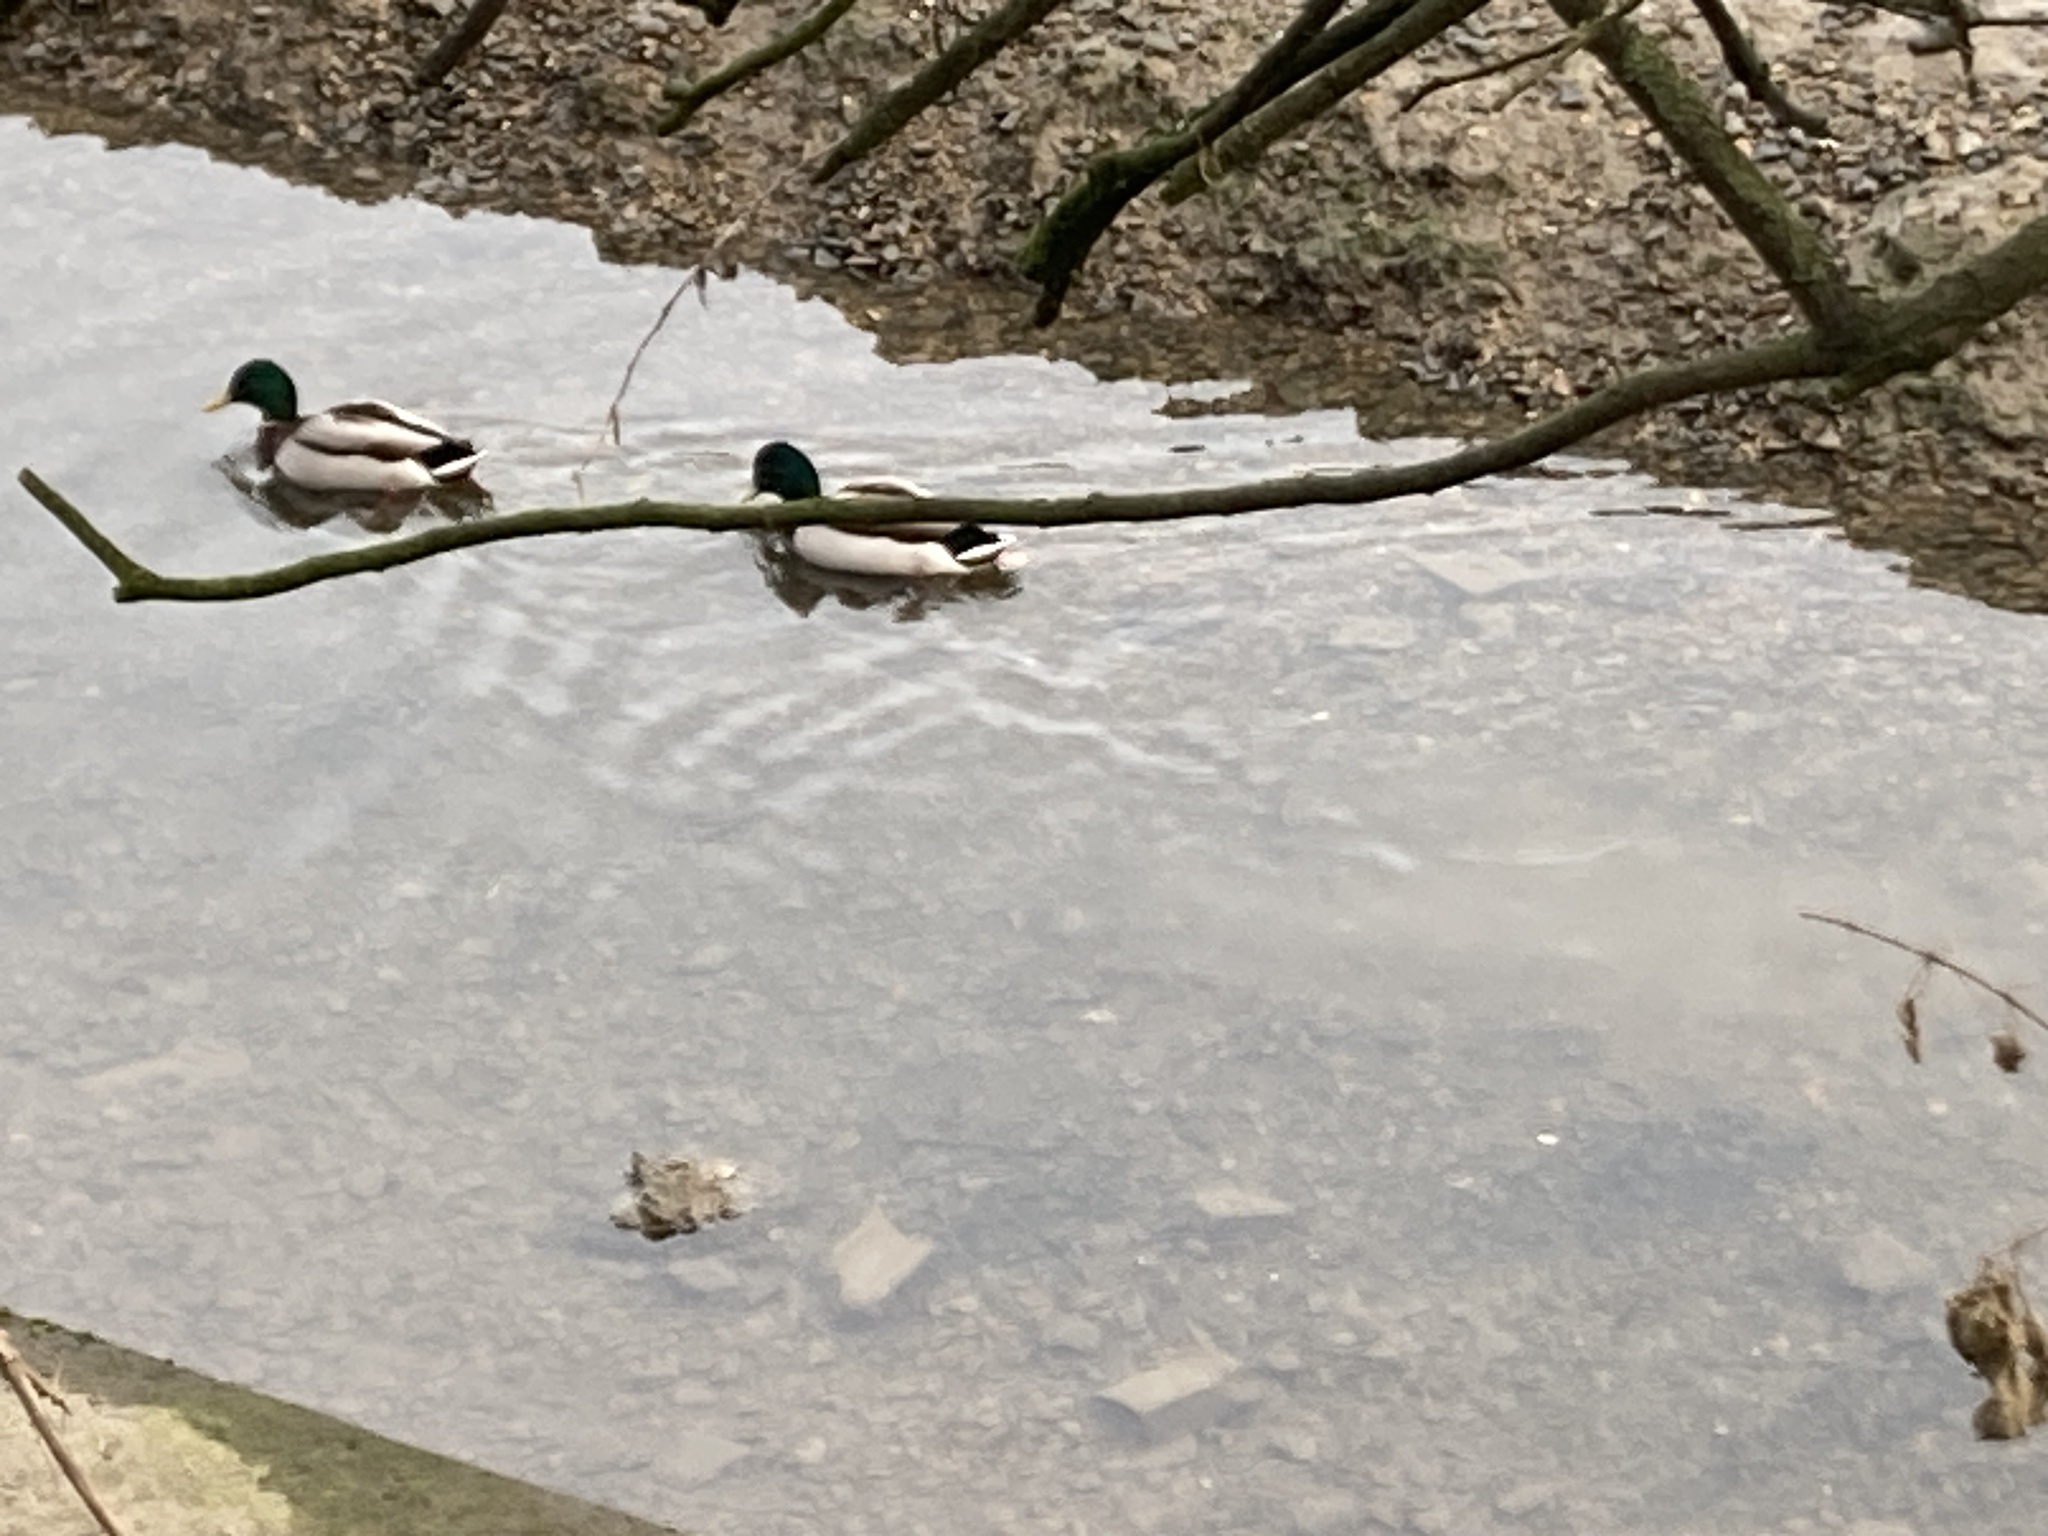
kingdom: Animalia
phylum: Chordata
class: Aves
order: Anseriformes
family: Anatidae
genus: Anas
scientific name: Anas platyrhynchos
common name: Mallard
